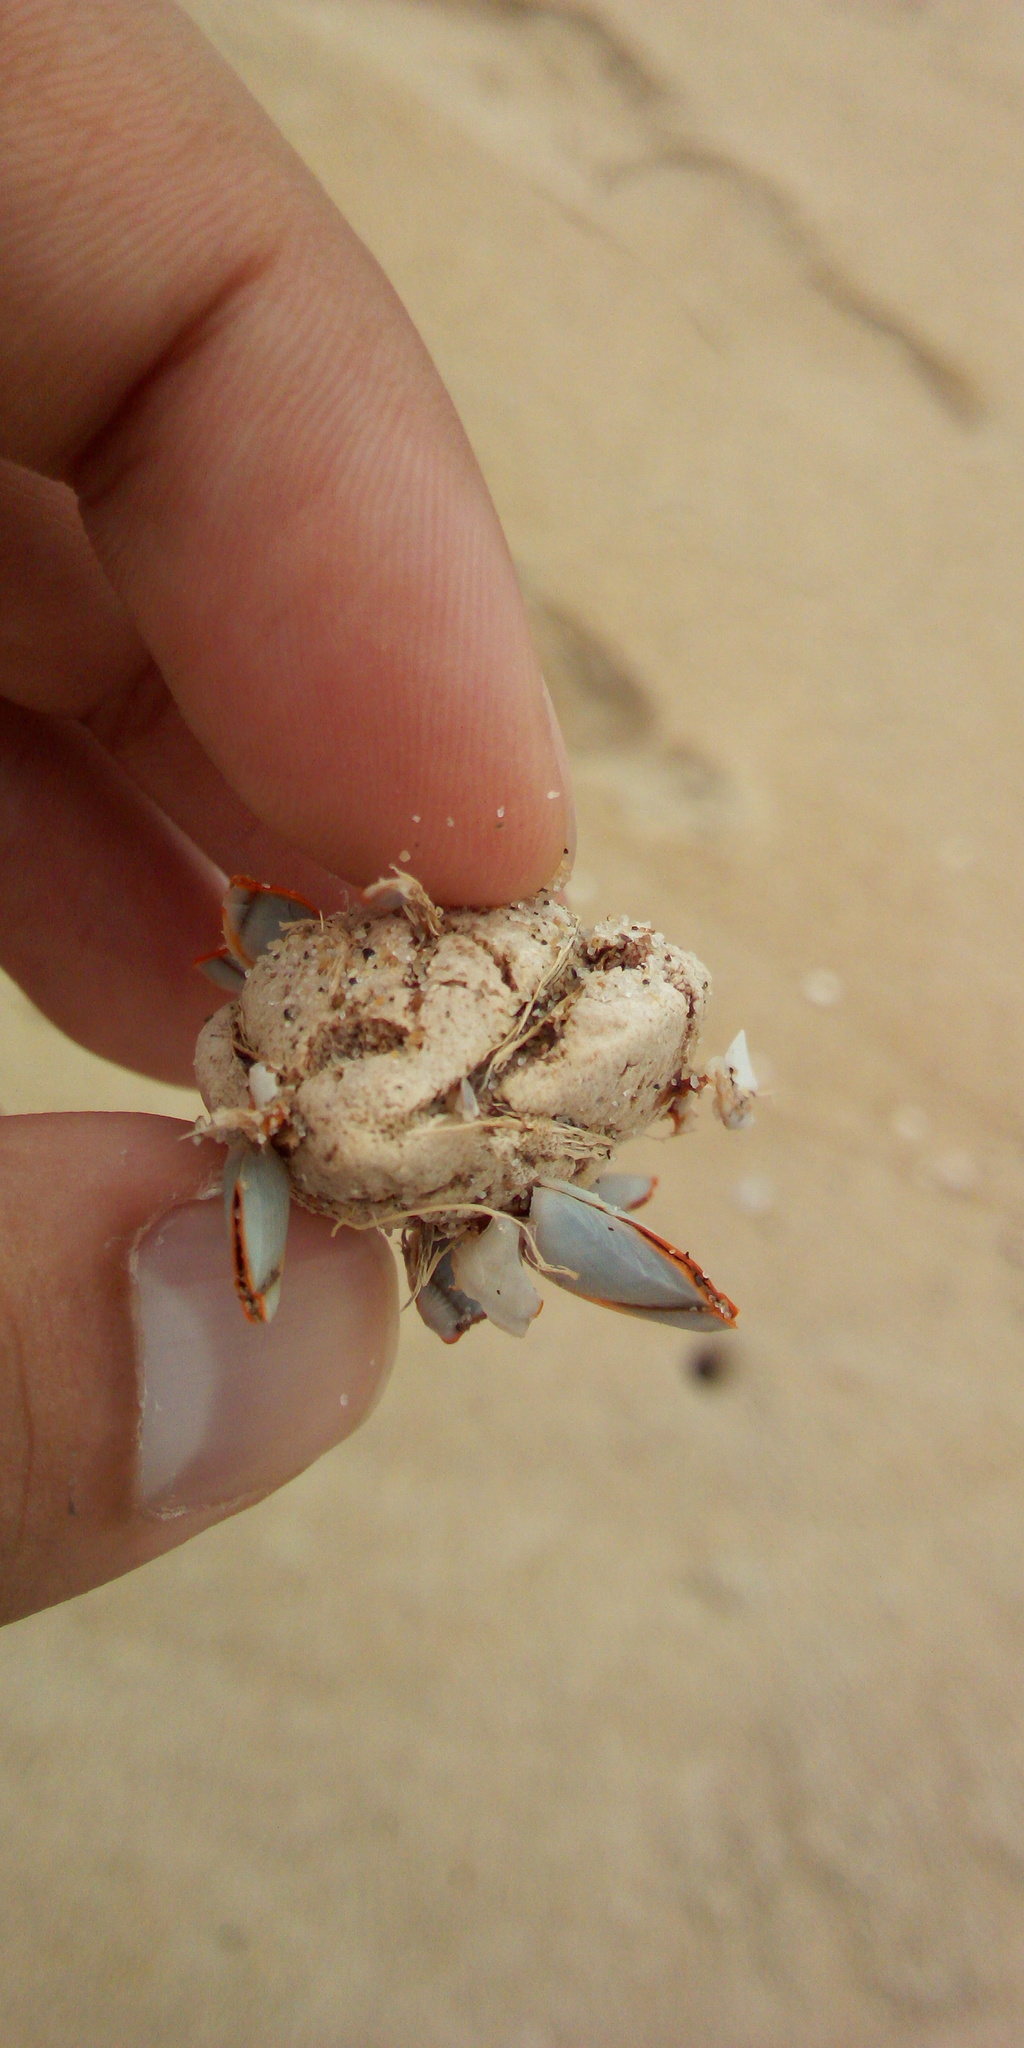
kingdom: Animalia
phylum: Arthropoda
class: Maxillopoda
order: Pedunculata
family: Lepadidae
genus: Lepas
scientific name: Lepas anserifera
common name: Goose barnacle
